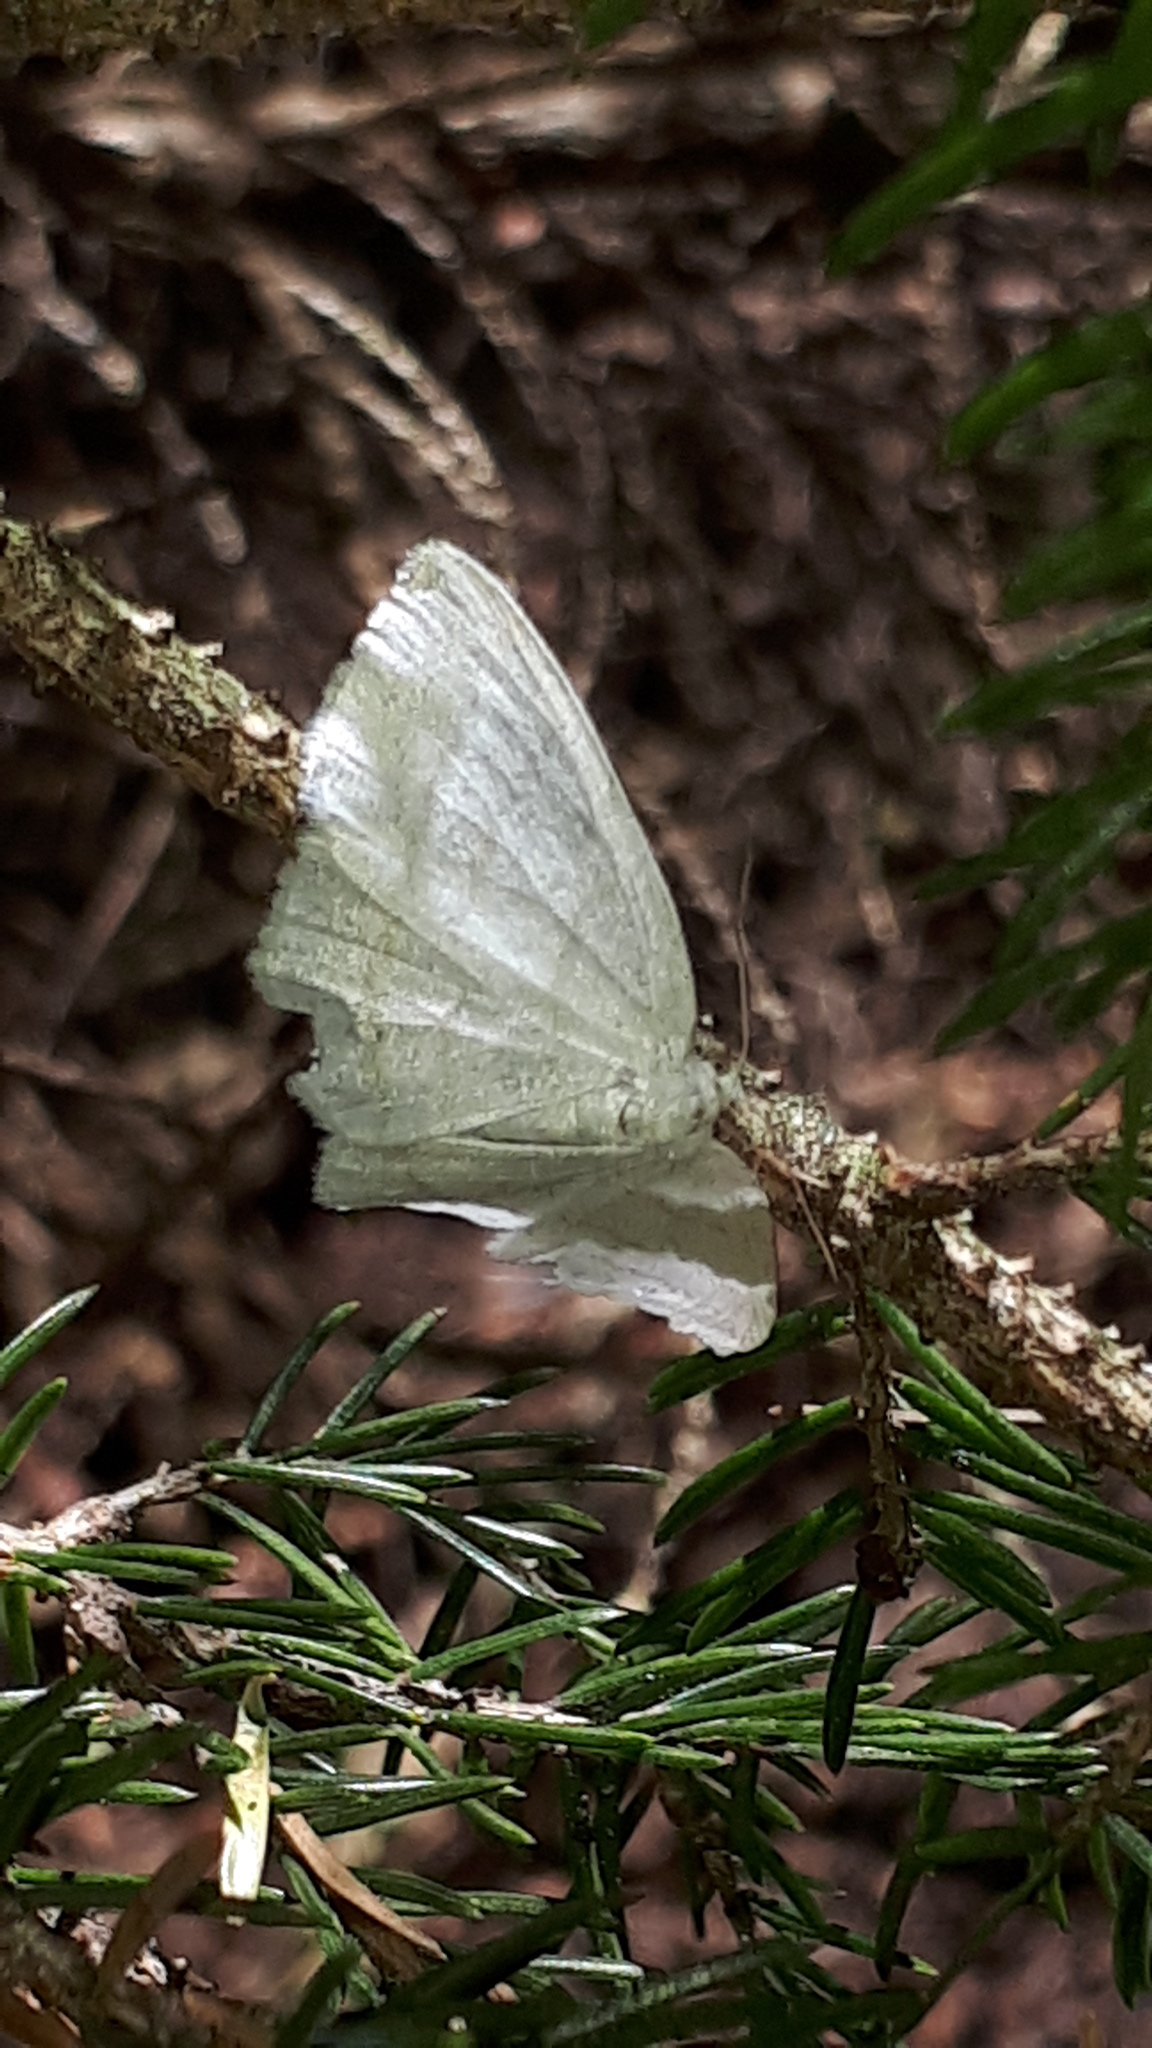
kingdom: Animalia
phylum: Arthropoda
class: Insecta
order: Lepidoptera
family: Geometridae
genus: Cabera
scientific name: Cabera pusaria
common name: Common white wave
